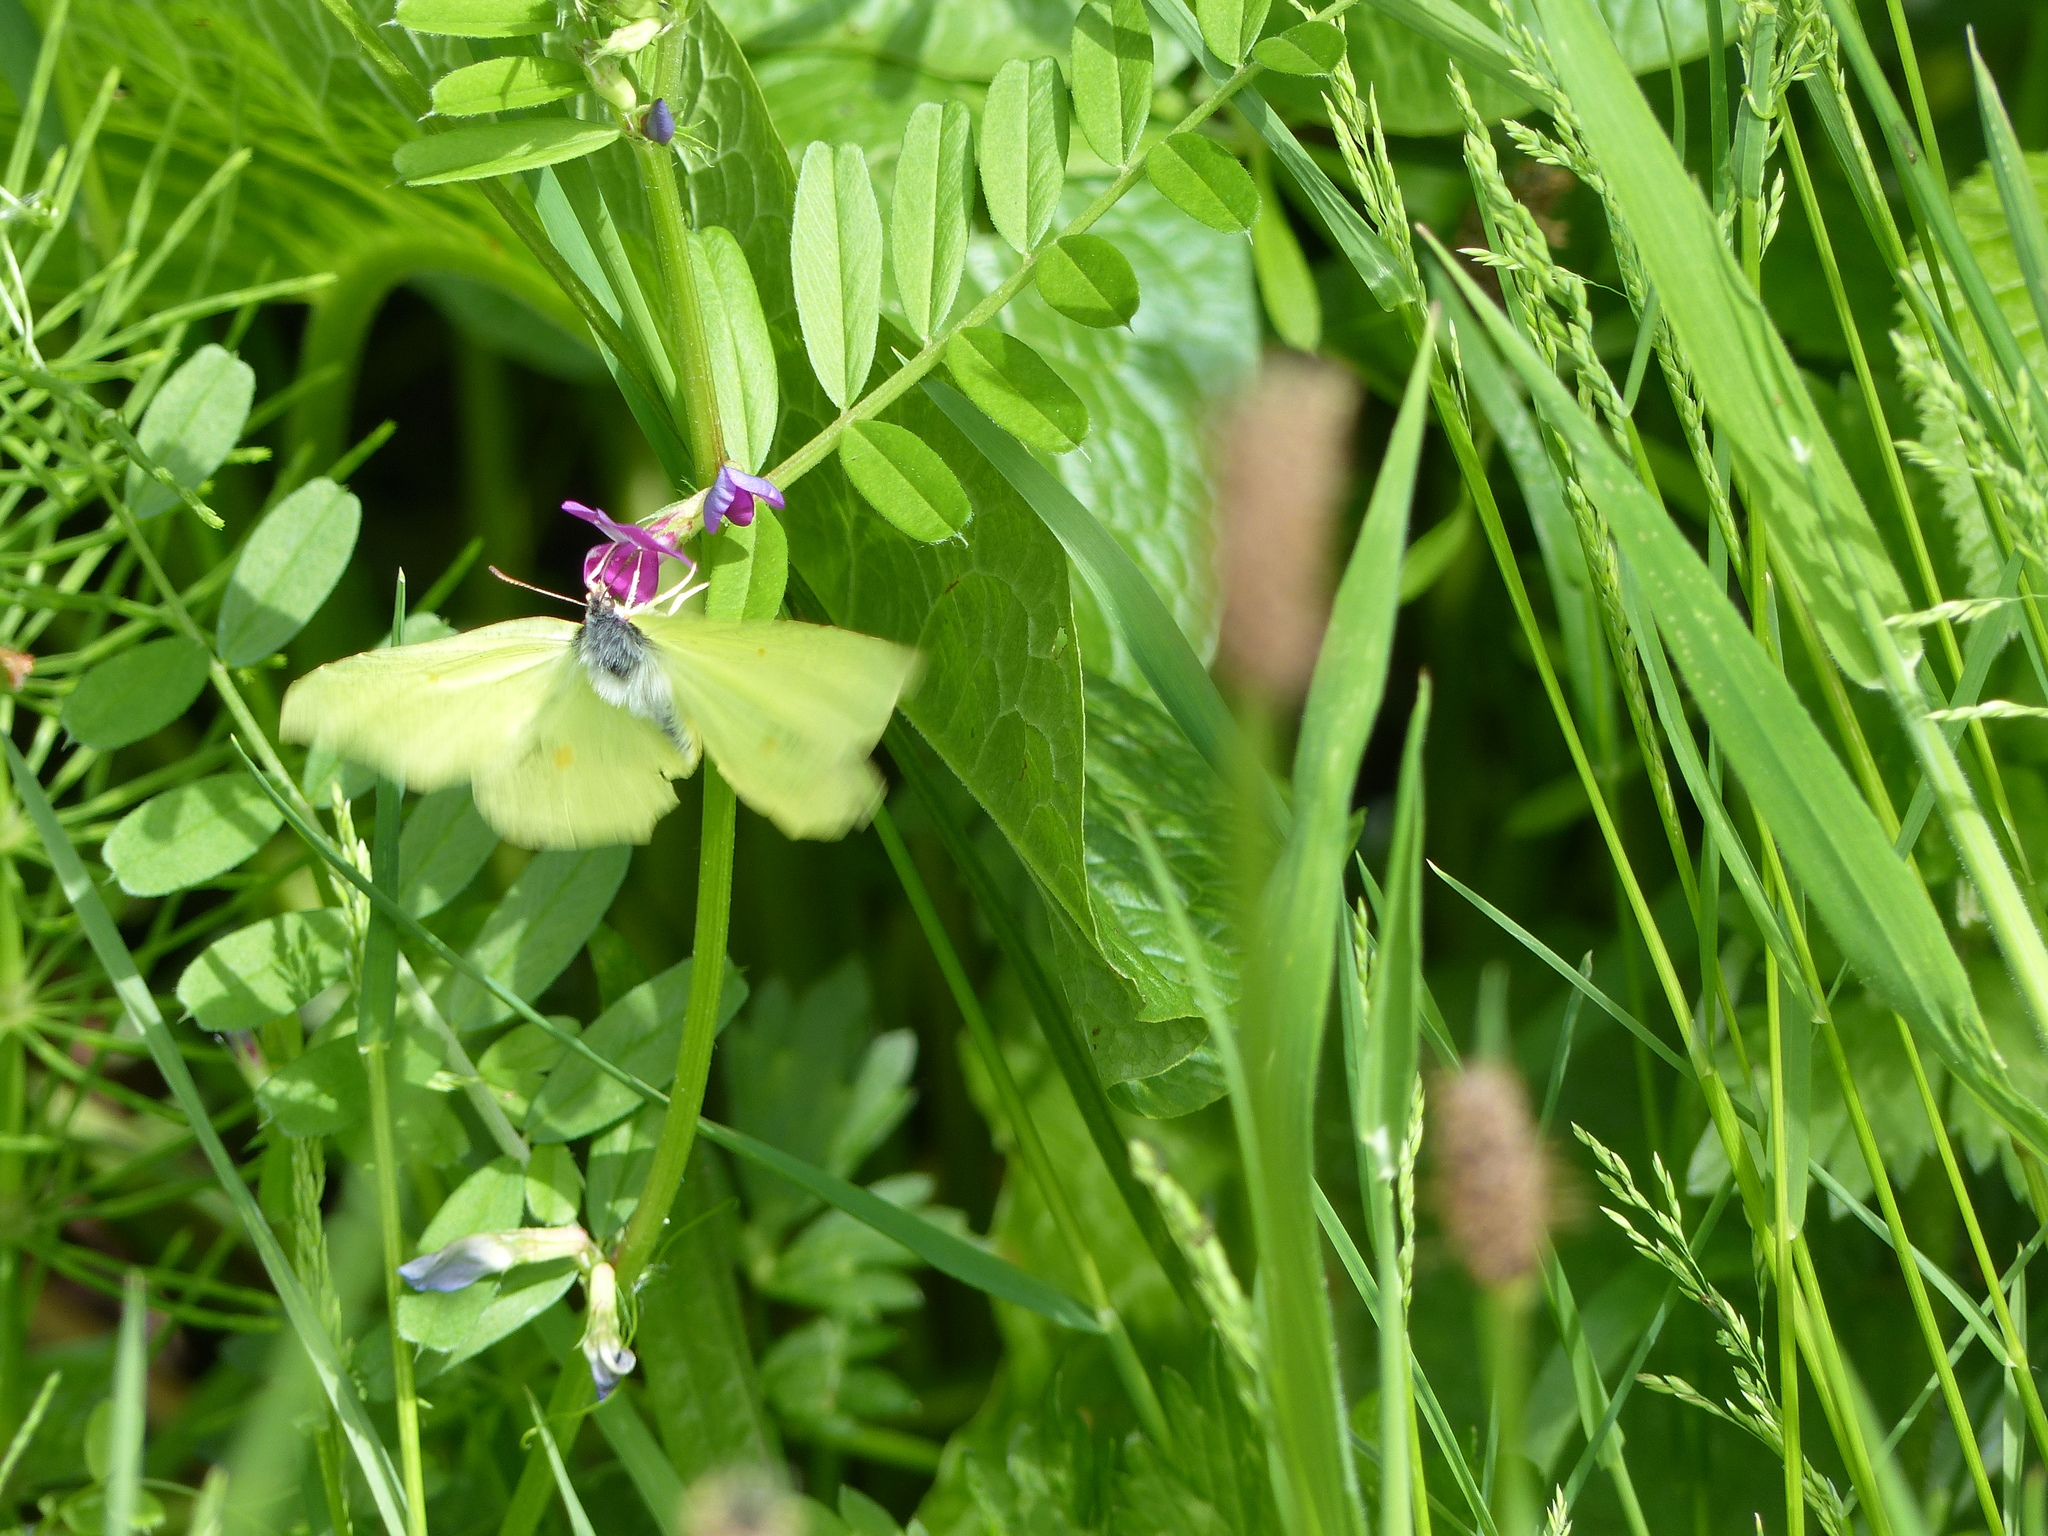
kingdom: Animalia
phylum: Arthropoda
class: Insecta
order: Lepidoptera
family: Pieridae
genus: Gonepteryx
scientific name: Gonepteryx rhamni
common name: Brimstone
